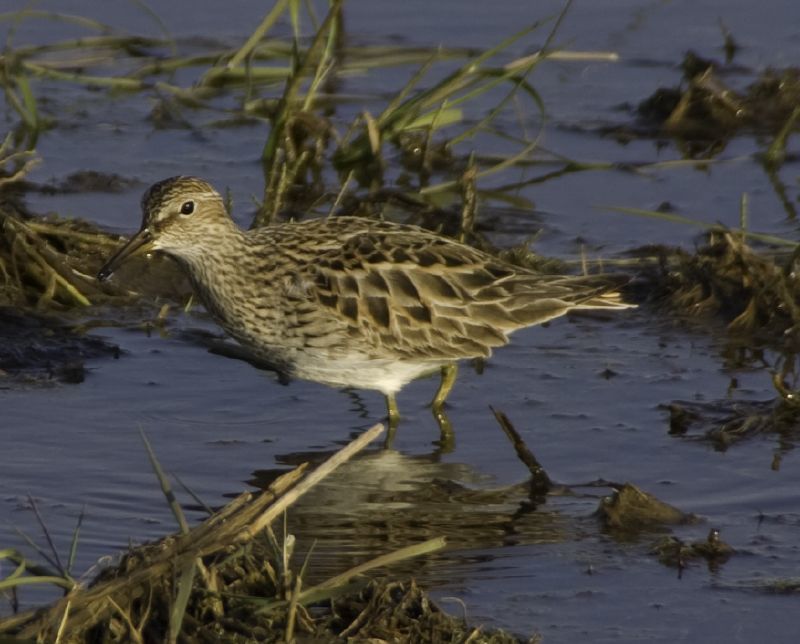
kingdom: Animalia
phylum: Chordata
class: Aves
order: Charadriiformes
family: Scolopacidae
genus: Calidris
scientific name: Calidris melanotos
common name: Pectoral sandpiper
